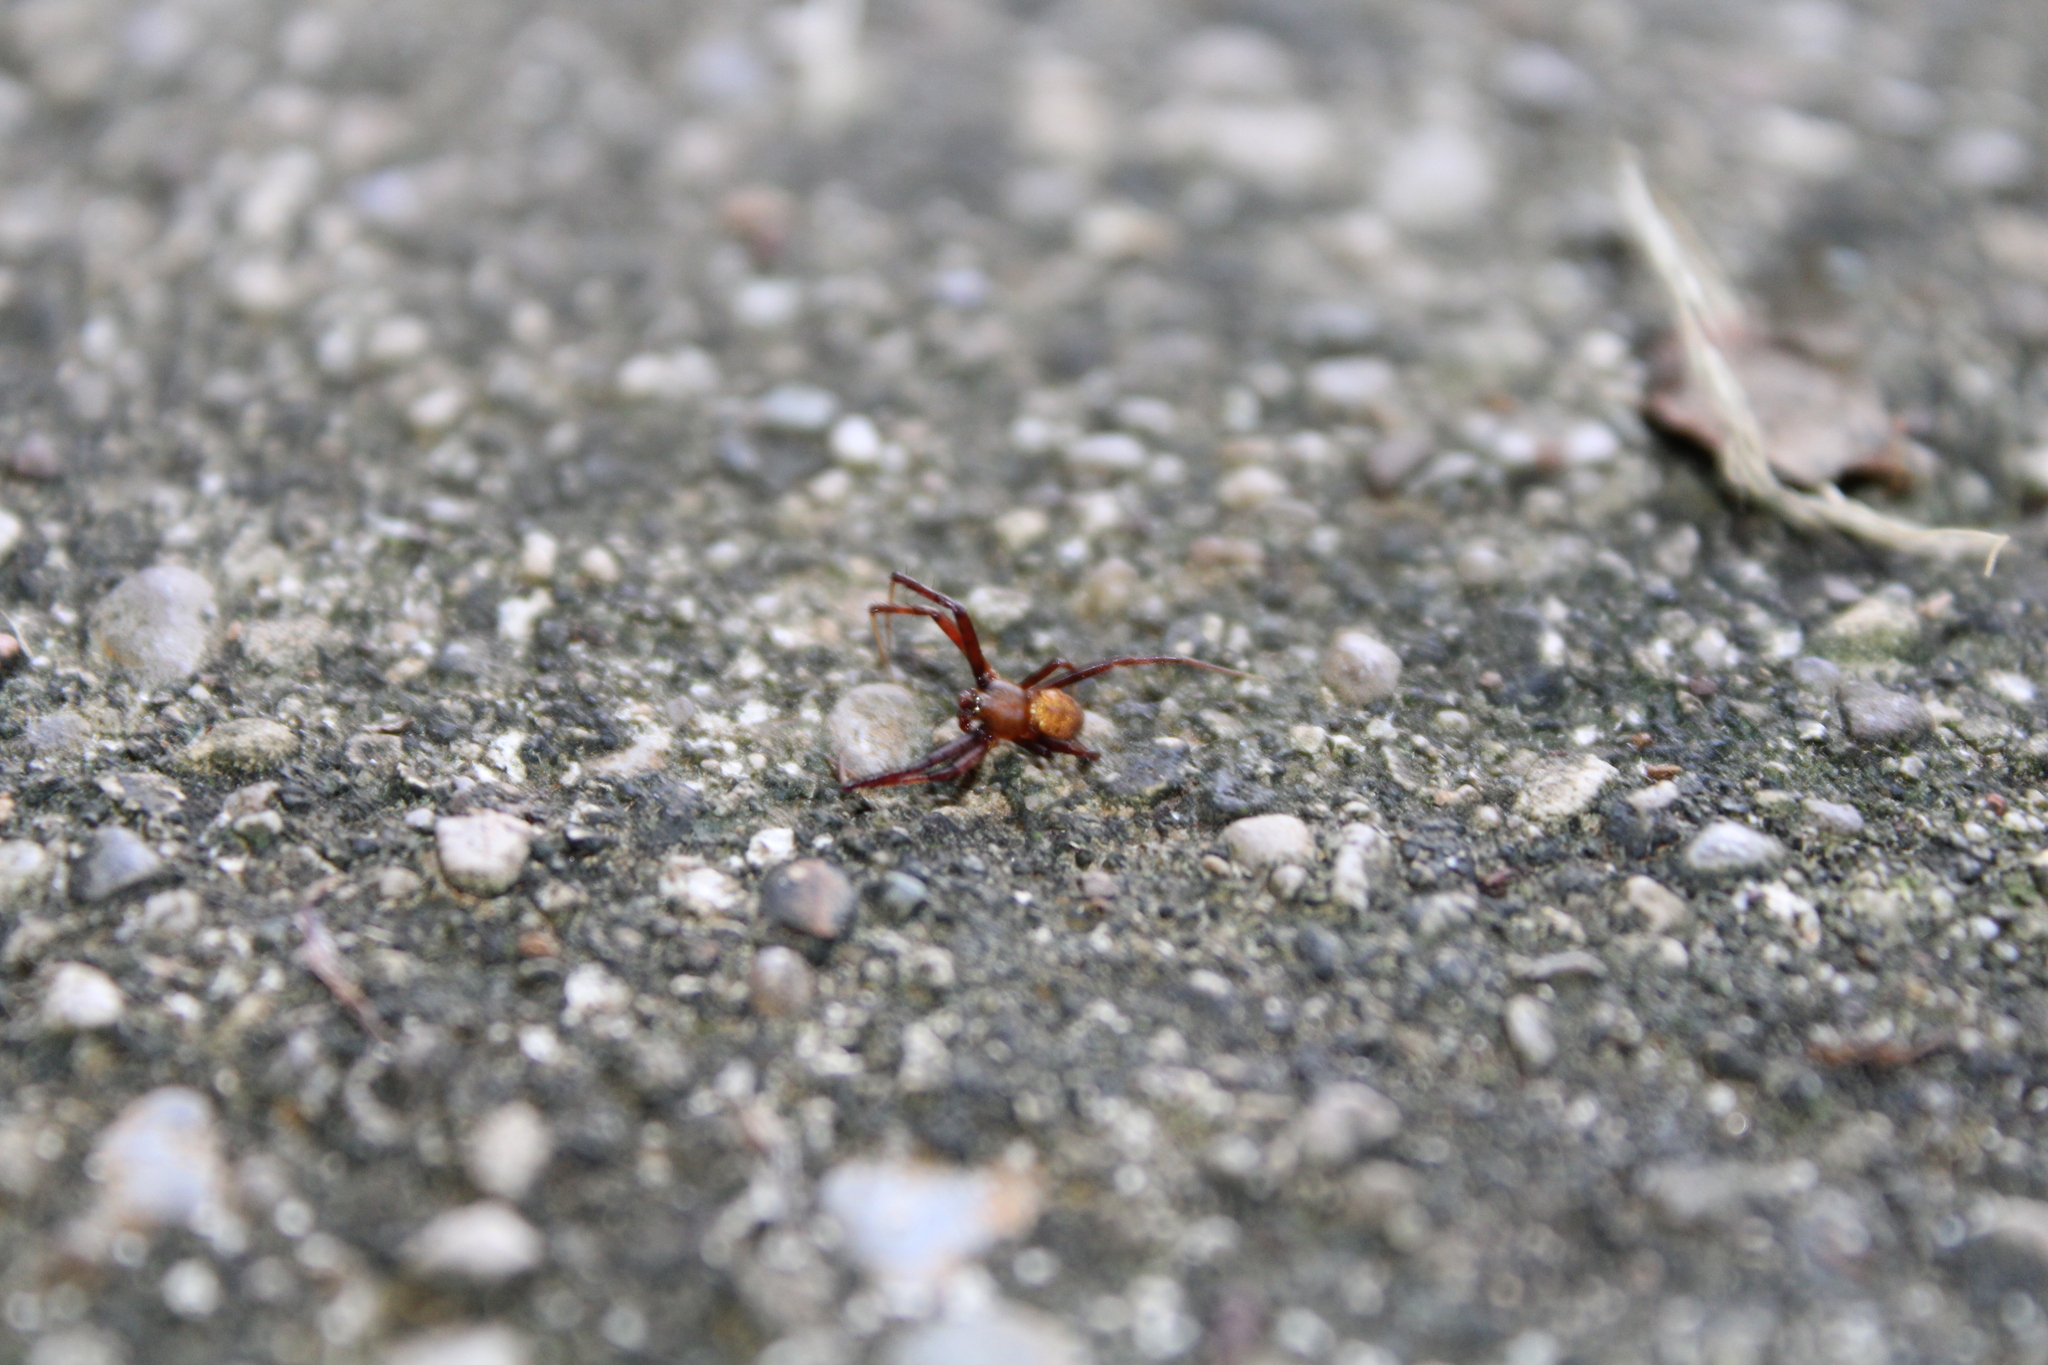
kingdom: Animalia
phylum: Arthropoda
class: Arachnida
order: Araneae
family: Araneidae
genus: Gea
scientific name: Gea heptagon
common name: Orb weavers
